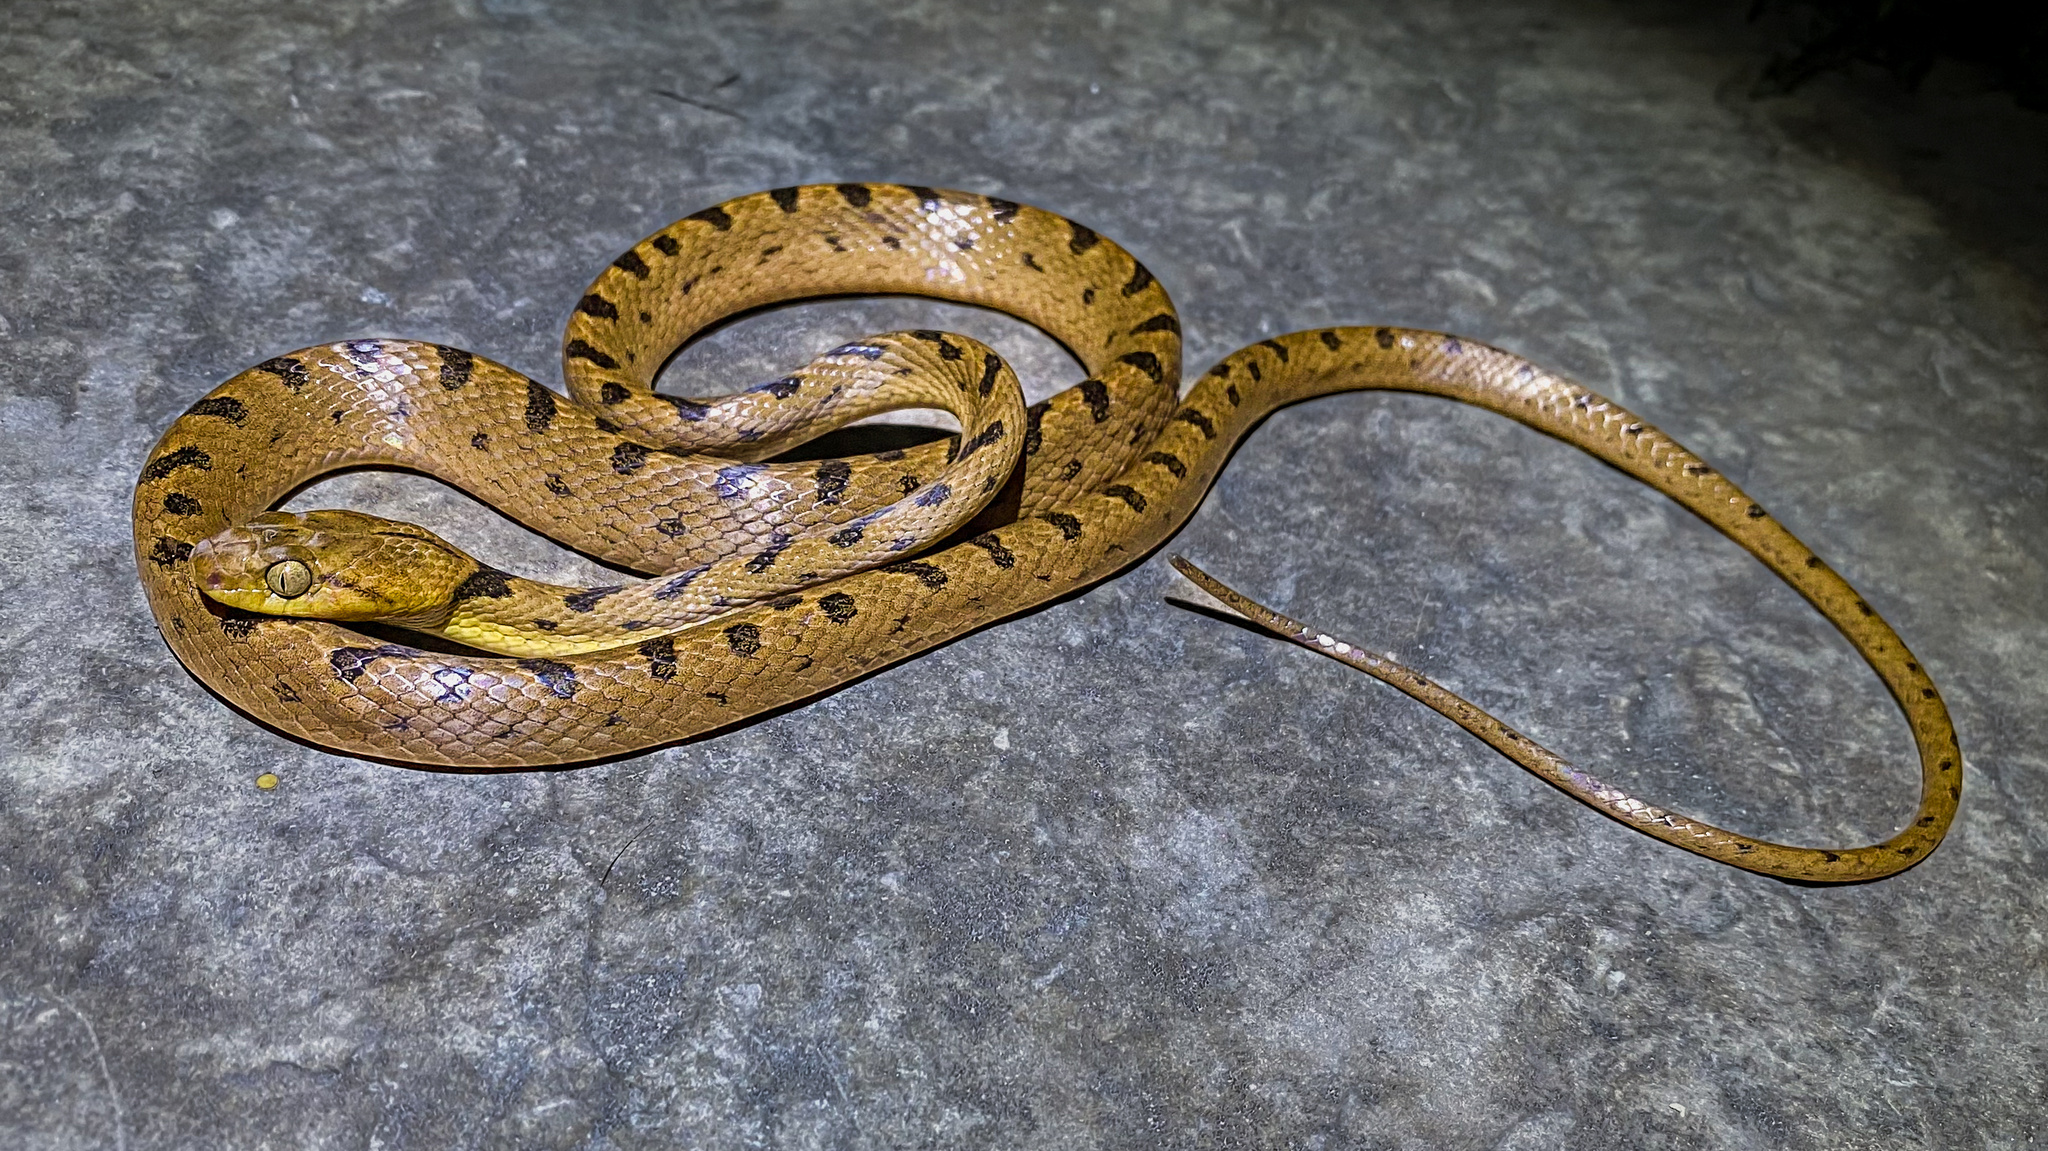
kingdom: Animalia
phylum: Chordata
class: Squamata
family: Colubridae
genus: Leptodeira
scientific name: Leptodeira septentrionalis
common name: Northern cat-eyed snake
